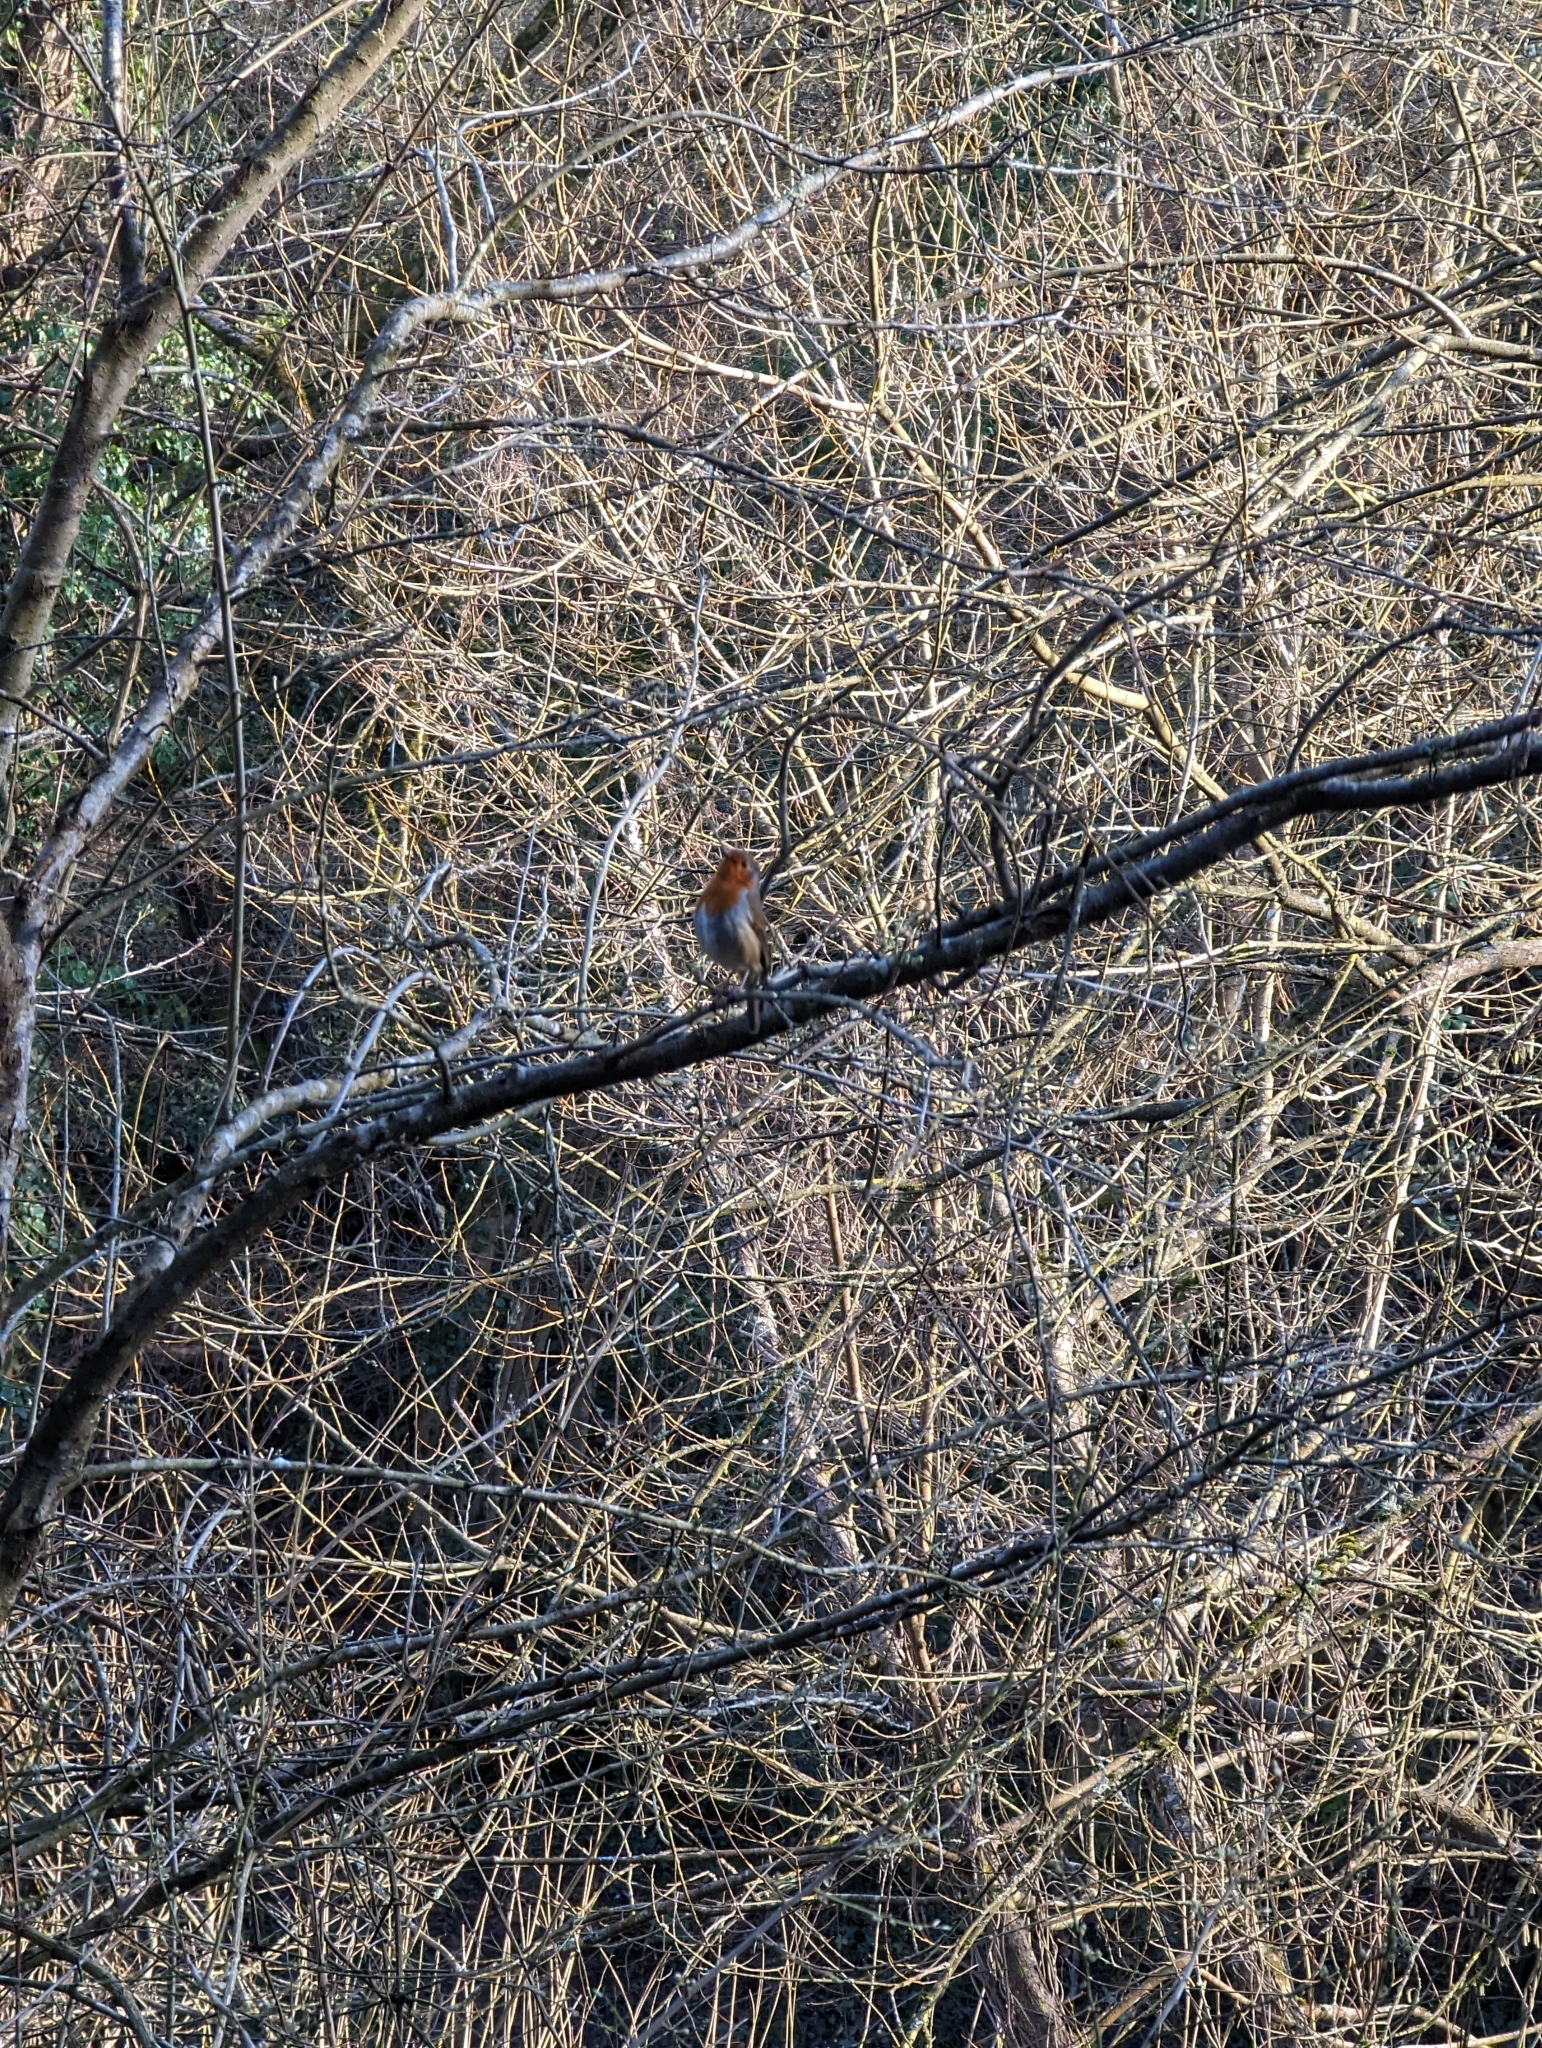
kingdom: Animalia
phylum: Chordata
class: Aves
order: Passeriformes
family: Muscicapidae
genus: Erithacus
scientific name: Erithacus rubecula
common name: European robin
